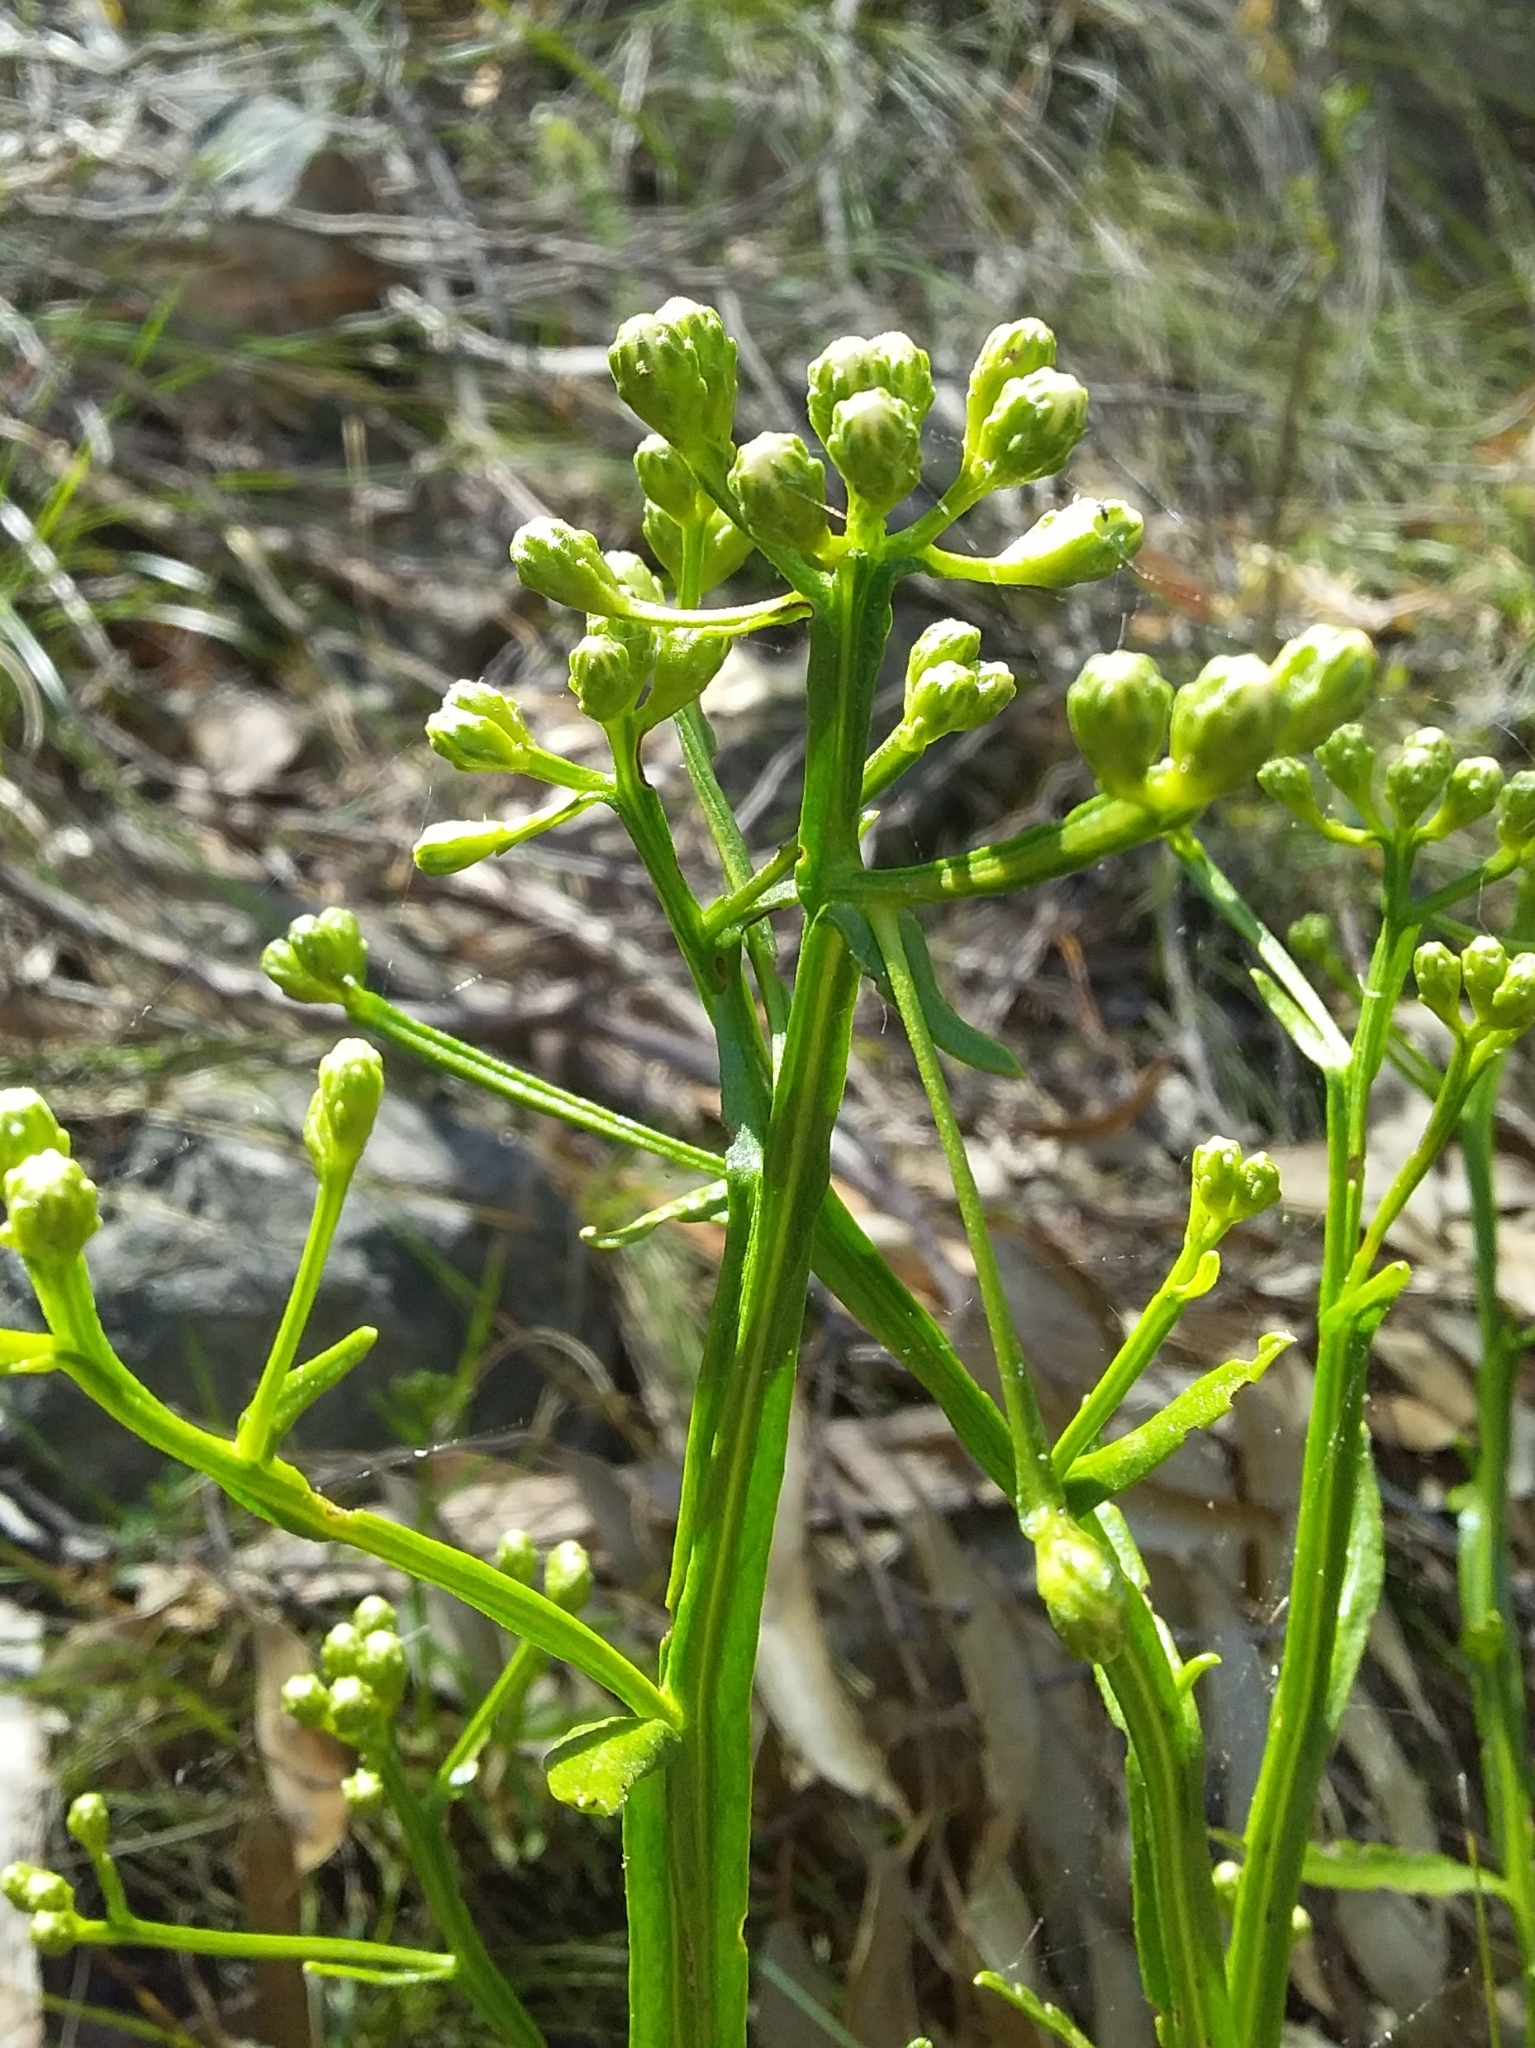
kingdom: Plantae
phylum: Tracheophyta
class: Magnoliopsida
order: Asterales
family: Asteraceae
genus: Ixodia
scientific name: Ixodia achillaeoides
